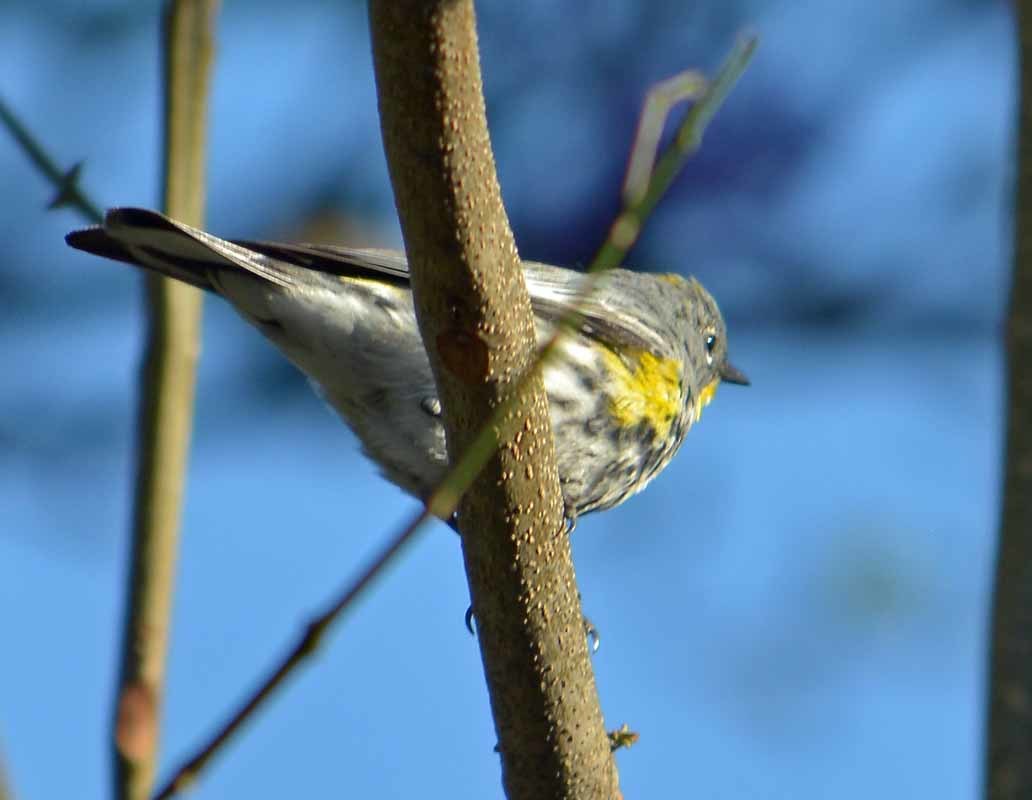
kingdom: Animalia
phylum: Chordata
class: Aves
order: Passeriformes
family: Parulidae
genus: Setophaga
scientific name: Setophaga coronata
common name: Myrtle warbler
